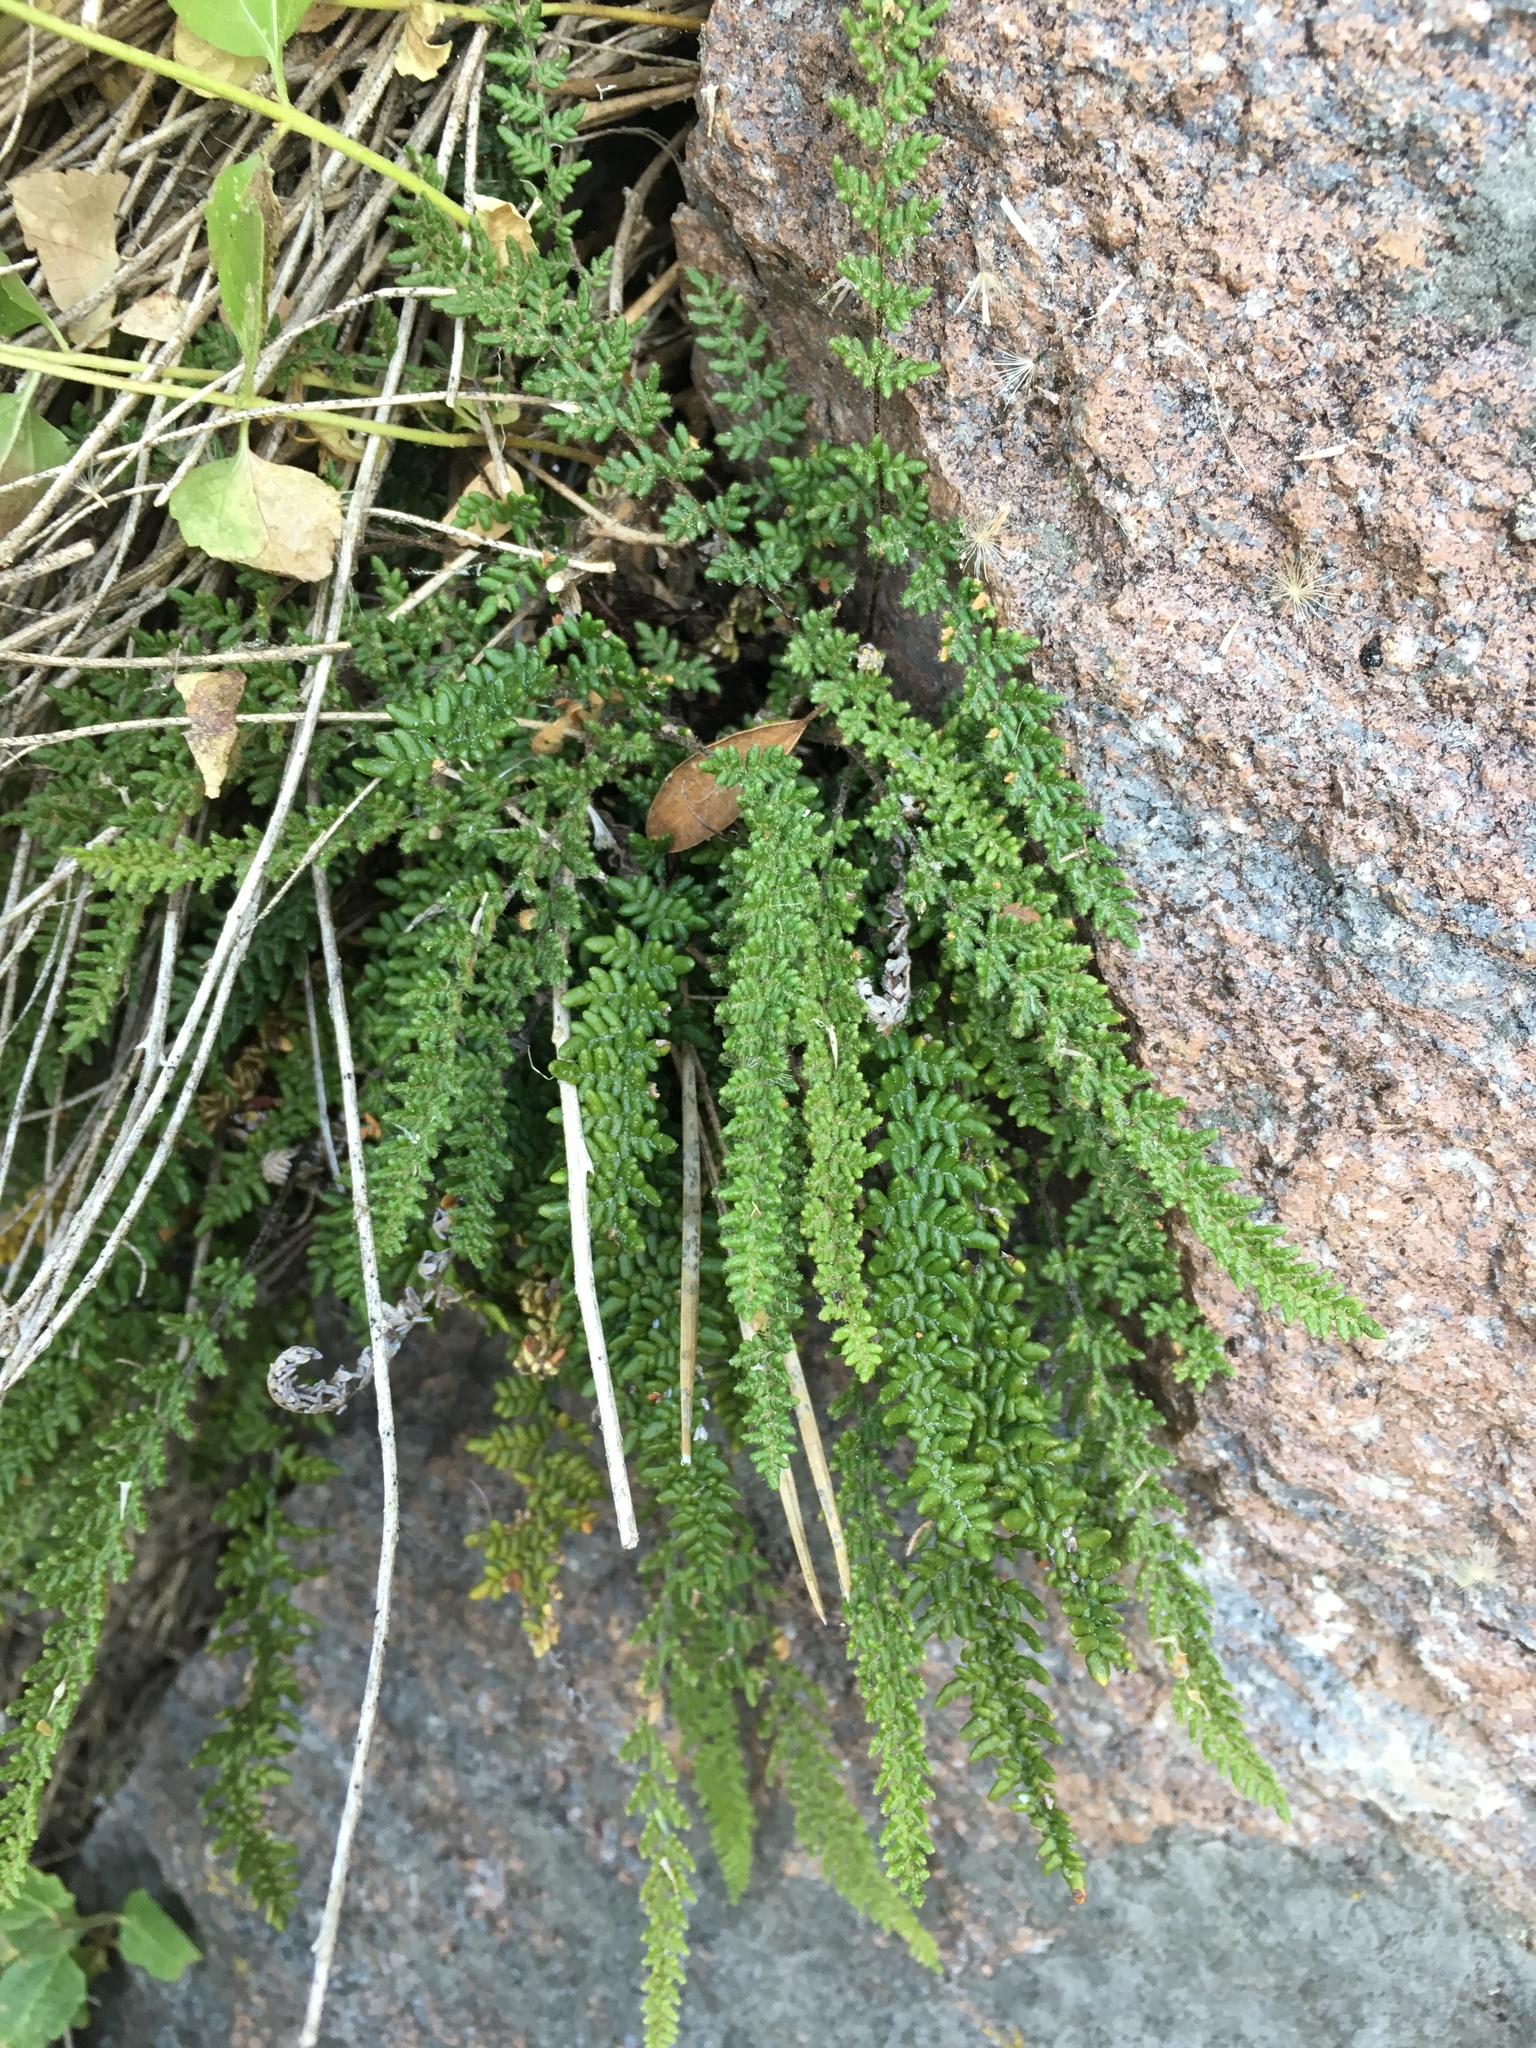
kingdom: Plantae
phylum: Tracheophyta
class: Polypodiopsida
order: Polypodiales
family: Pteridaceae
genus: Myriopteris
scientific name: Myriopteris gracillima
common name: Lace fern
